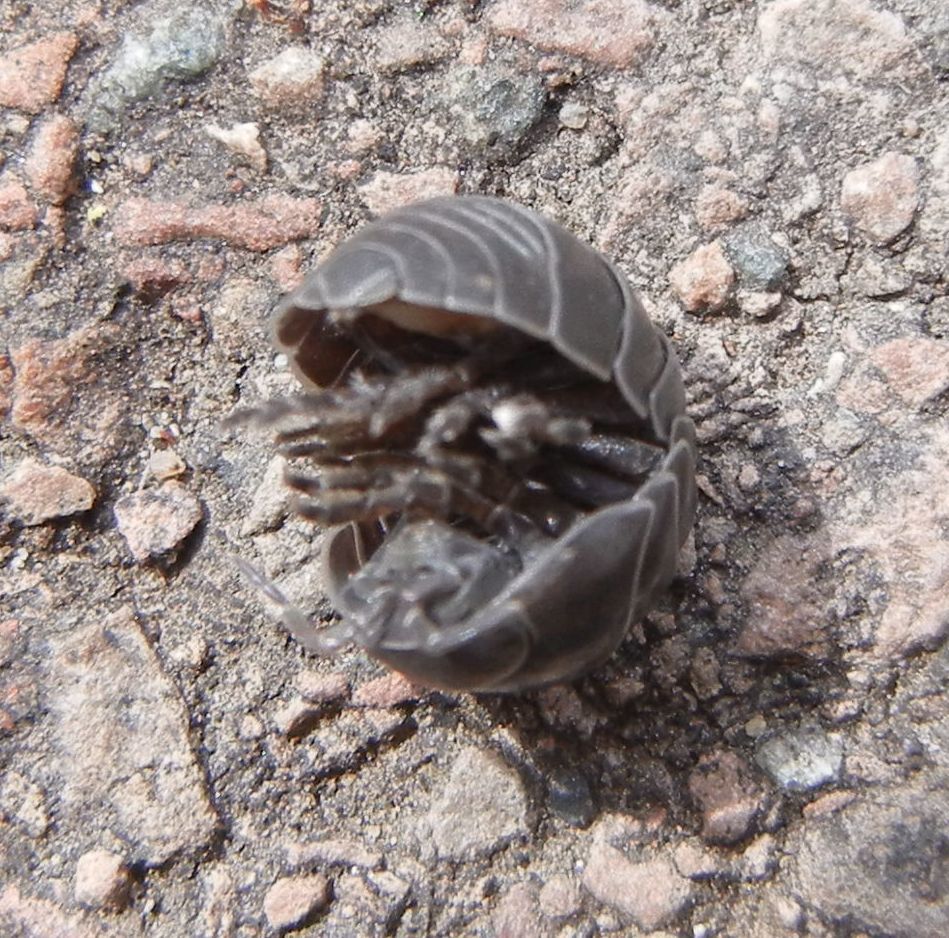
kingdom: Animalia
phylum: Arthropoda
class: Malacostraca
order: Isopoda
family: Armadillidiidae
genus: Armadillidium
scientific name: Armadillidium vulgare
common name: Common pill woodlouse
